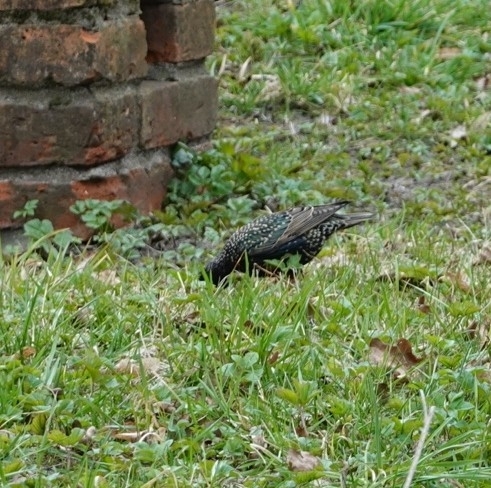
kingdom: Animalia
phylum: Chordata
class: Aves
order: Passeriformes
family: Sturnidae
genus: Sturnus
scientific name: Sturnus vulgaris
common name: Common starling
